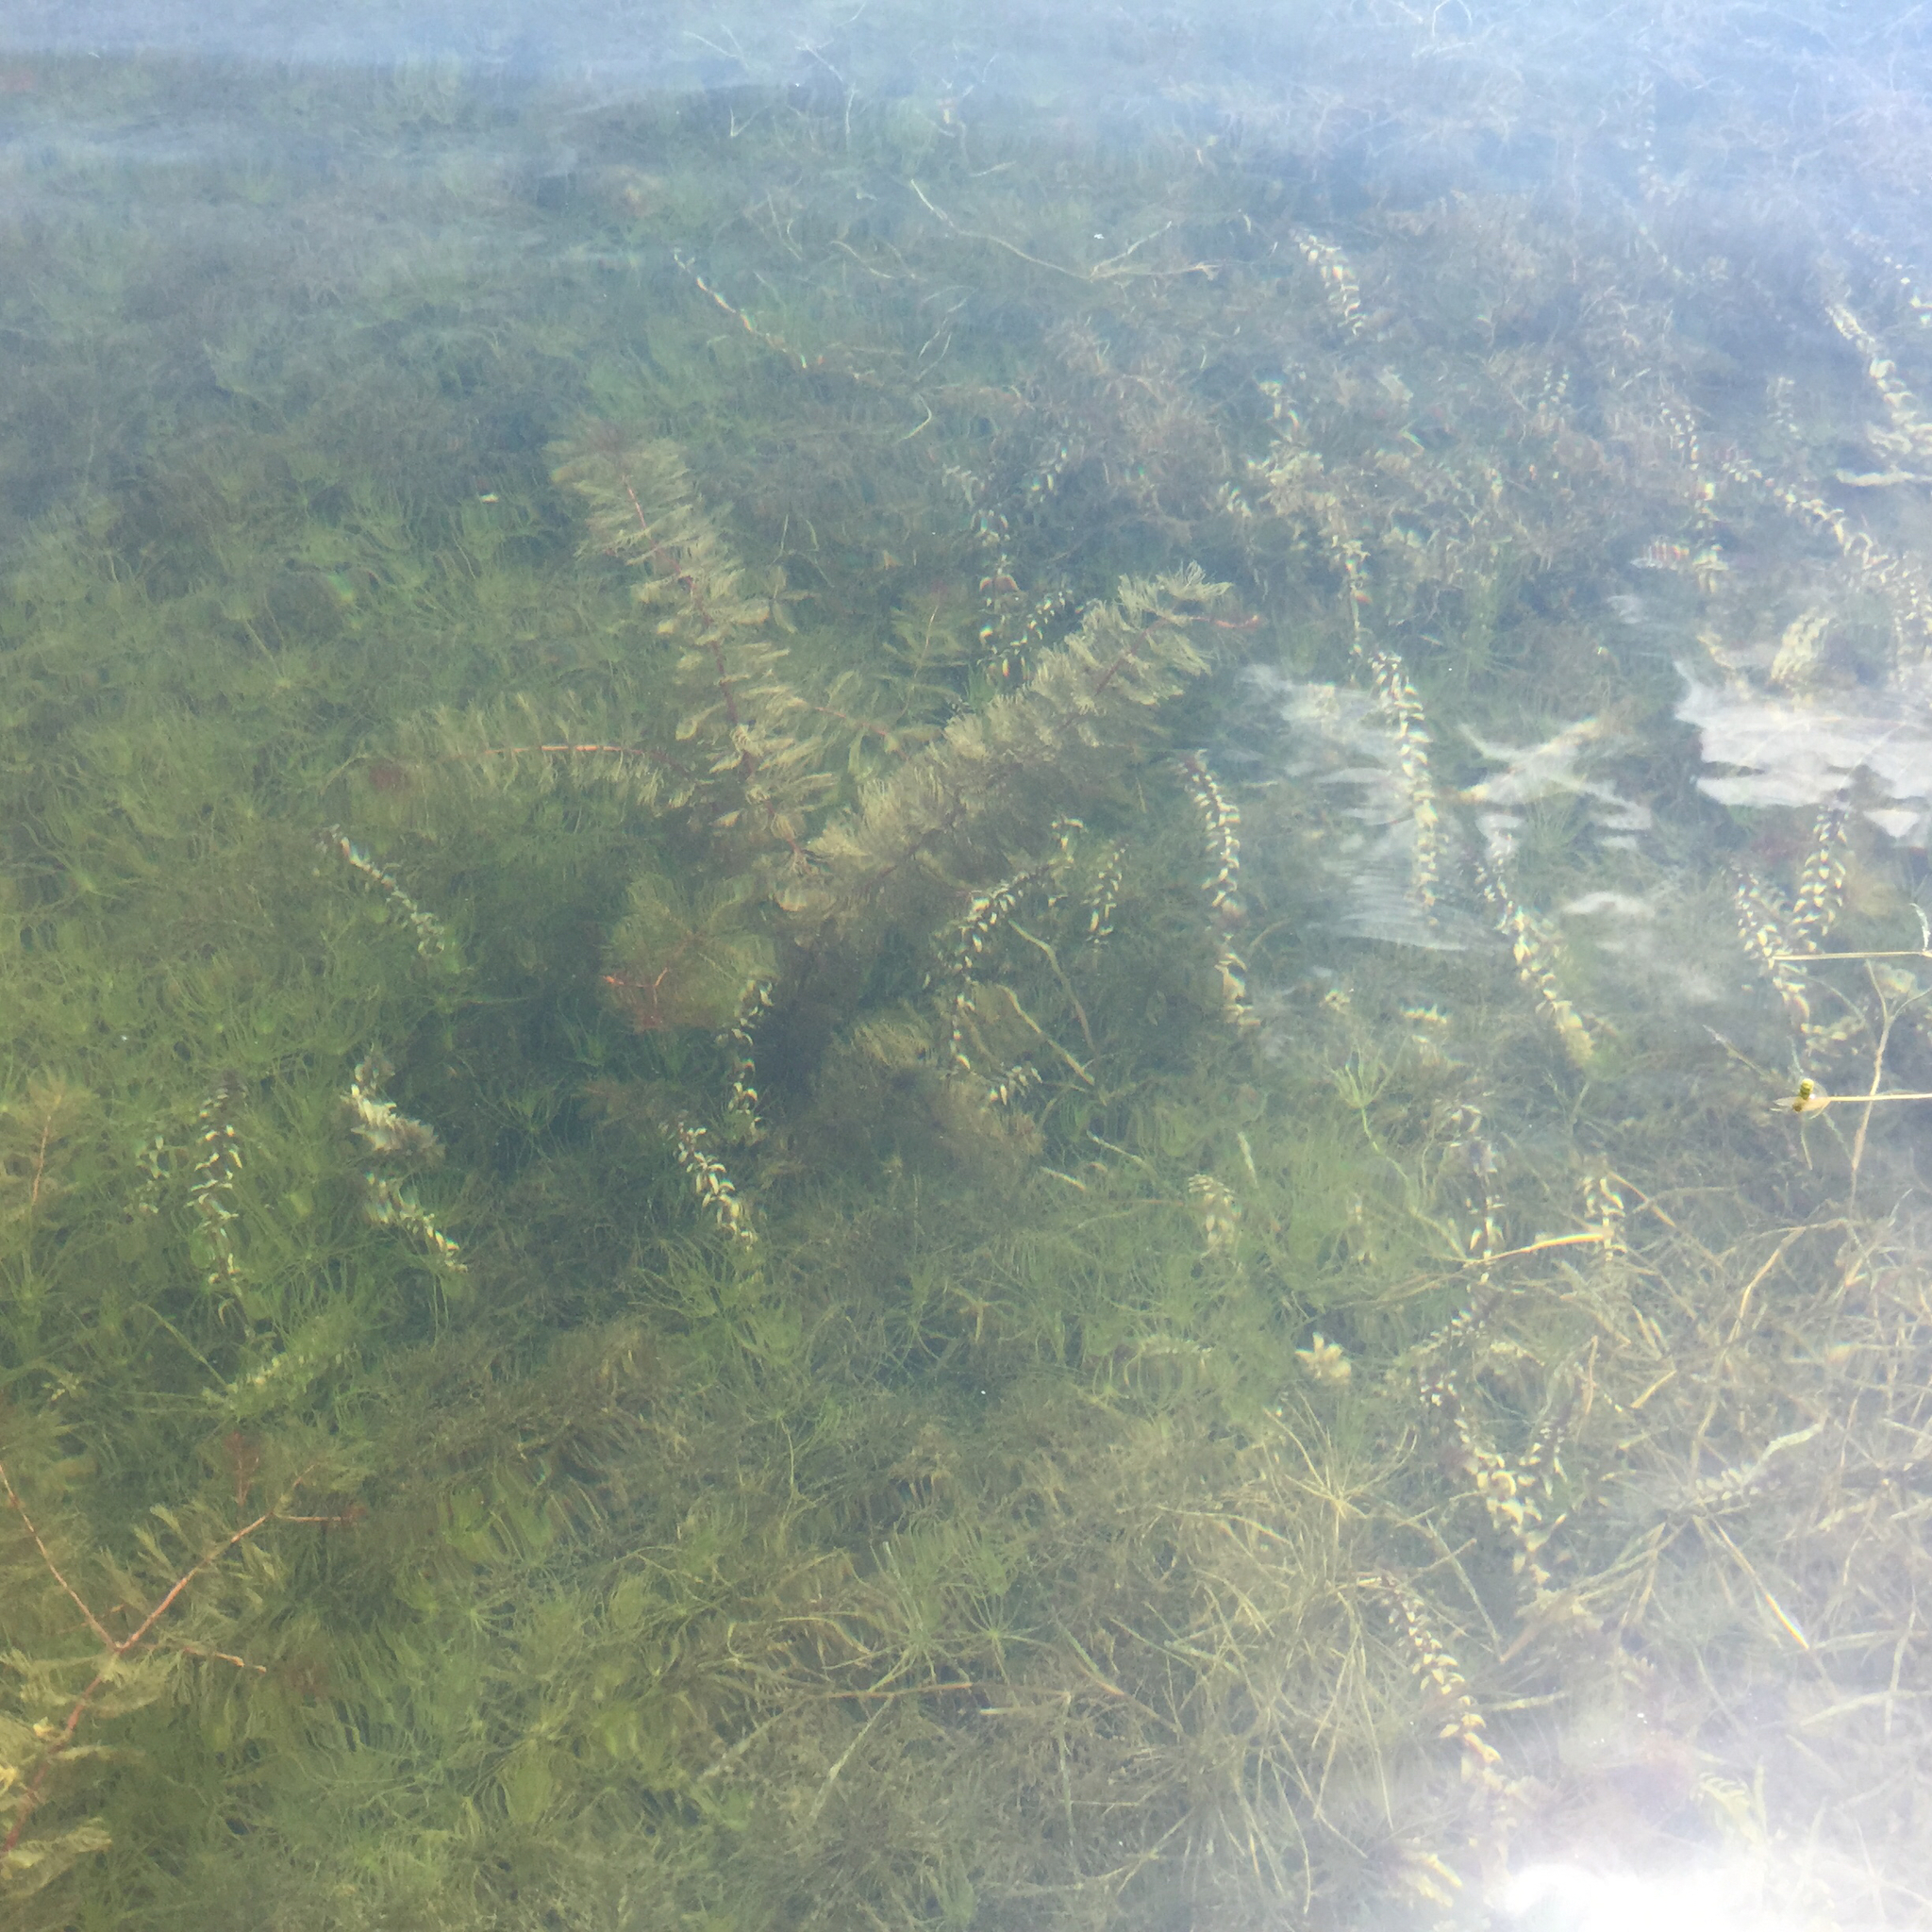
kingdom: Plantae
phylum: Tracheophyta
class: Magnoliopsida
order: Saxifragales
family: Haloragaceae
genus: Myriophyllum
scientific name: Myriophyllum spicatum
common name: Spiked water-milfoil
